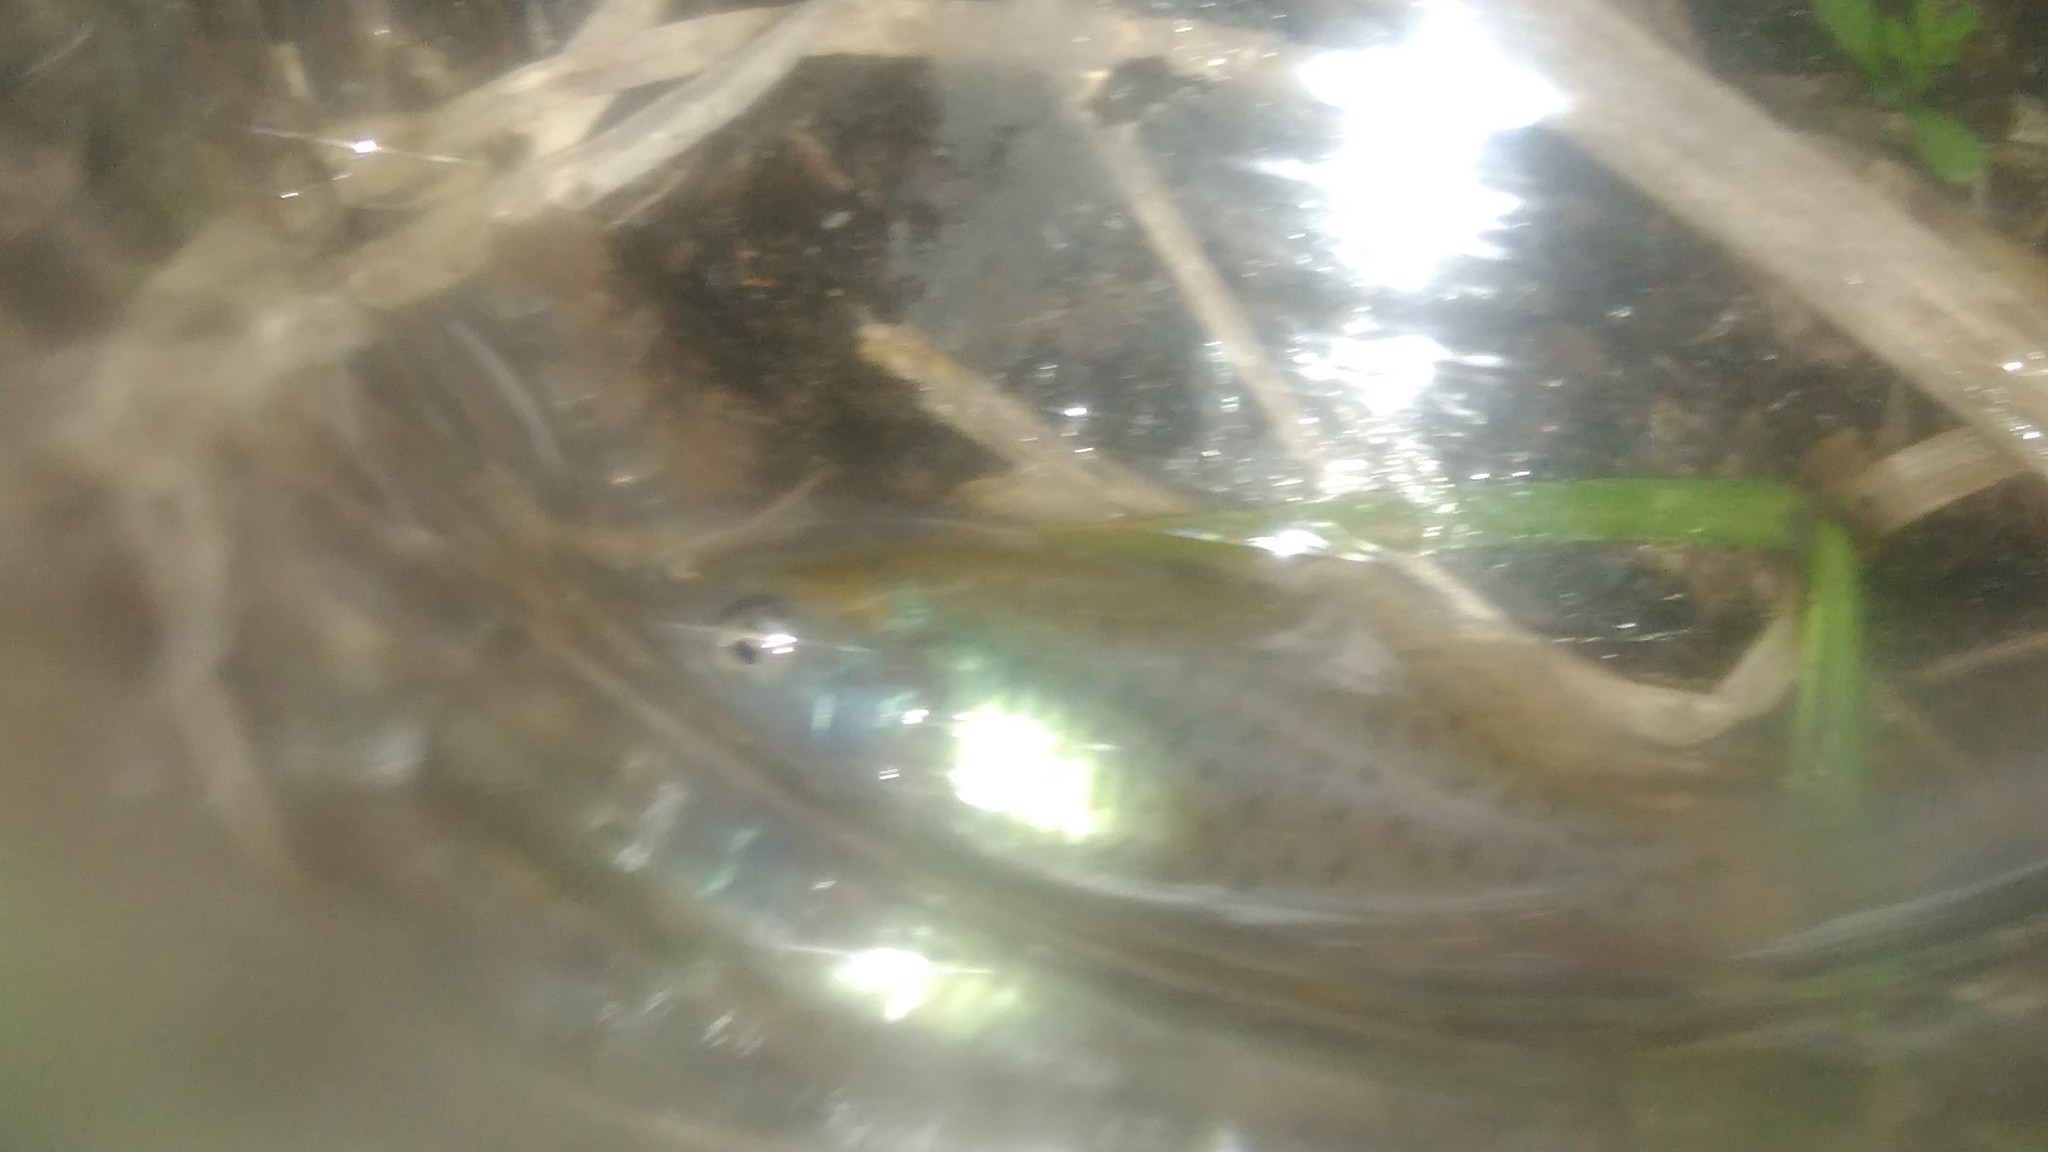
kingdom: Animalia
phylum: Chordata
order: Cyprinodontiformes
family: Rivulidae
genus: Austrolebias
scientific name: Austrolebias bellottii
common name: Argentine pearlfish
